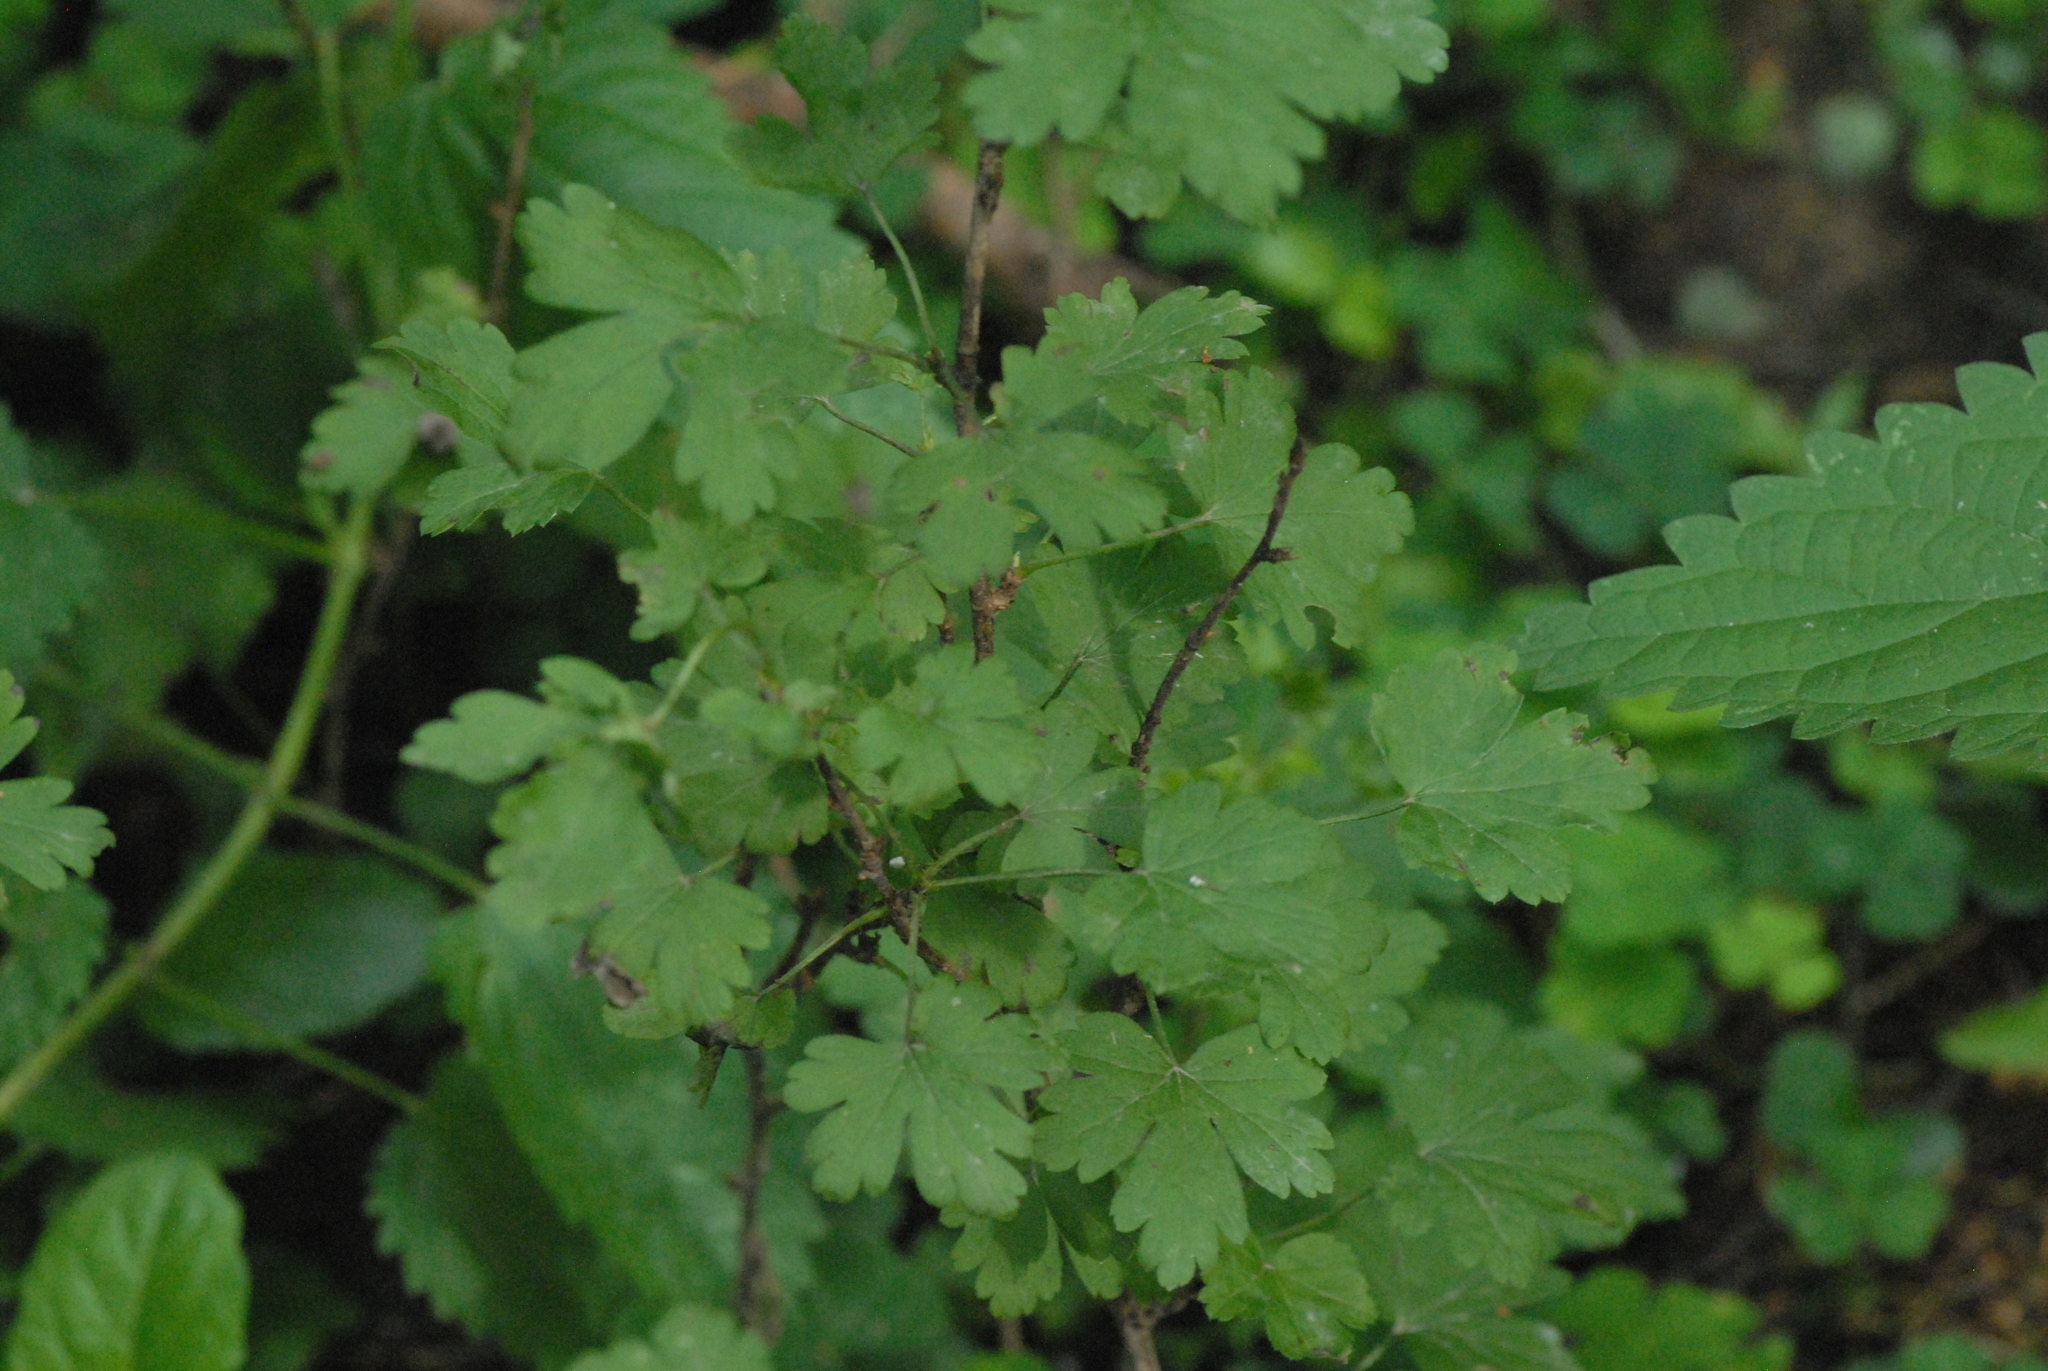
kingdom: Plantae
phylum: Tracheophyta
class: Magnoliopsida
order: Saxifragales
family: Grossulariaceae
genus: Ribes
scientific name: Ribes uva-crispa
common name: Gooseberry
